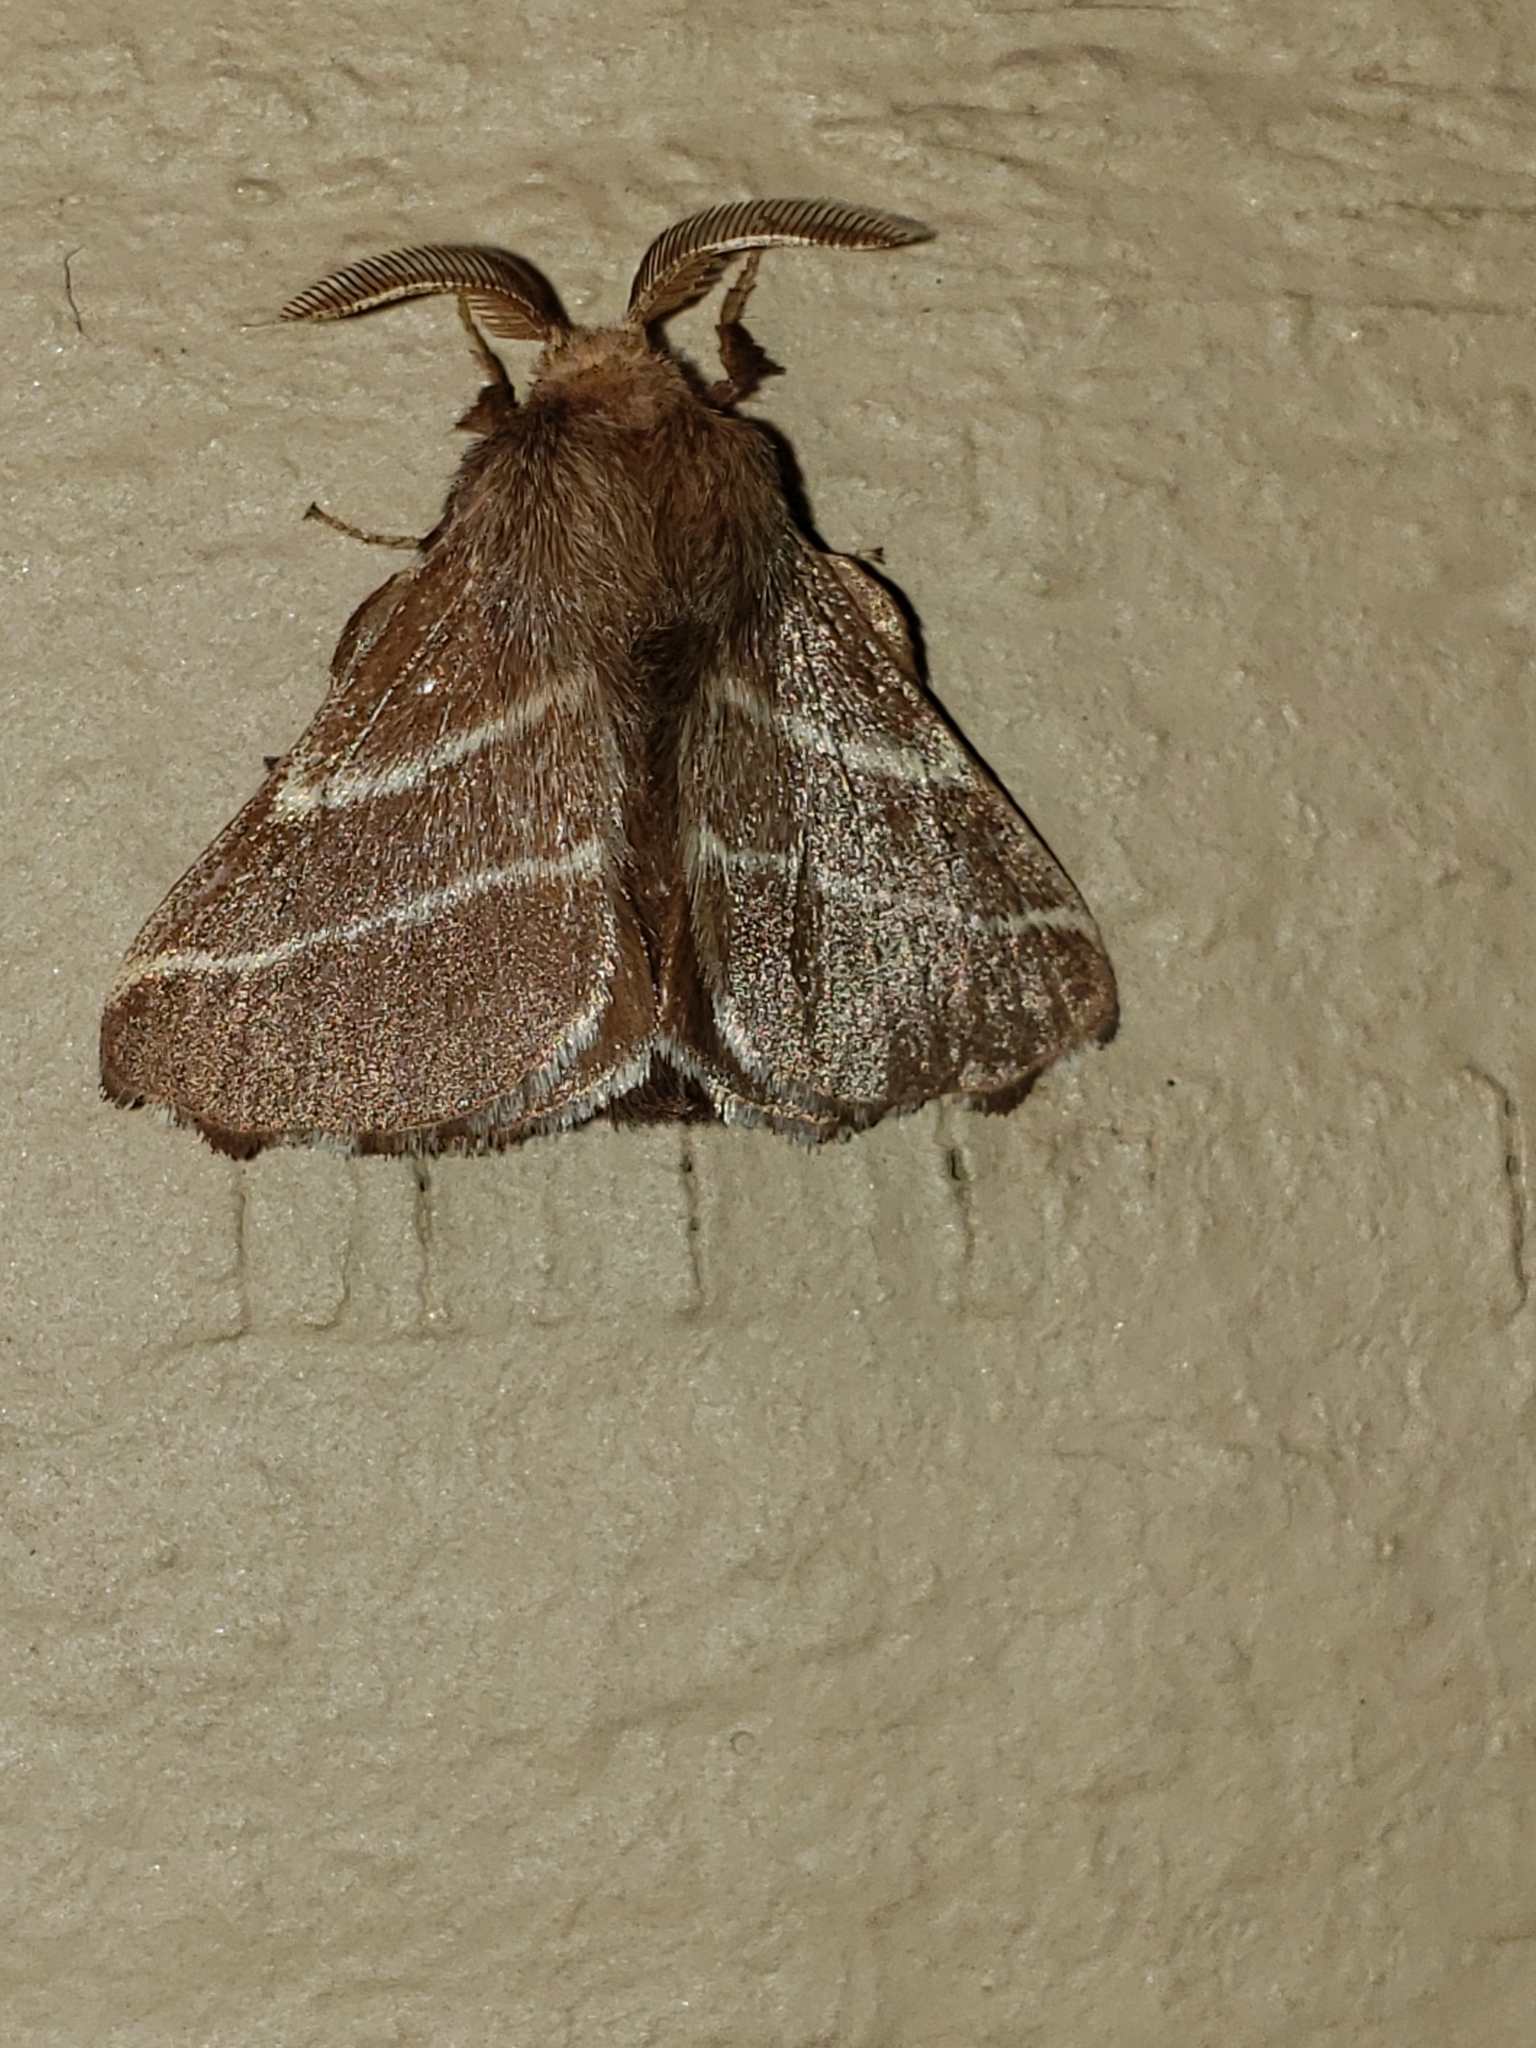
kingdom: Animalia
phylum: Arthropoda
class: Insecta
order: Lepidoptera
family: Lasiocampidae
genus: Malacosoma
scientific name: Malacosoma americana
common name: Eastern tent caterpillar moth
